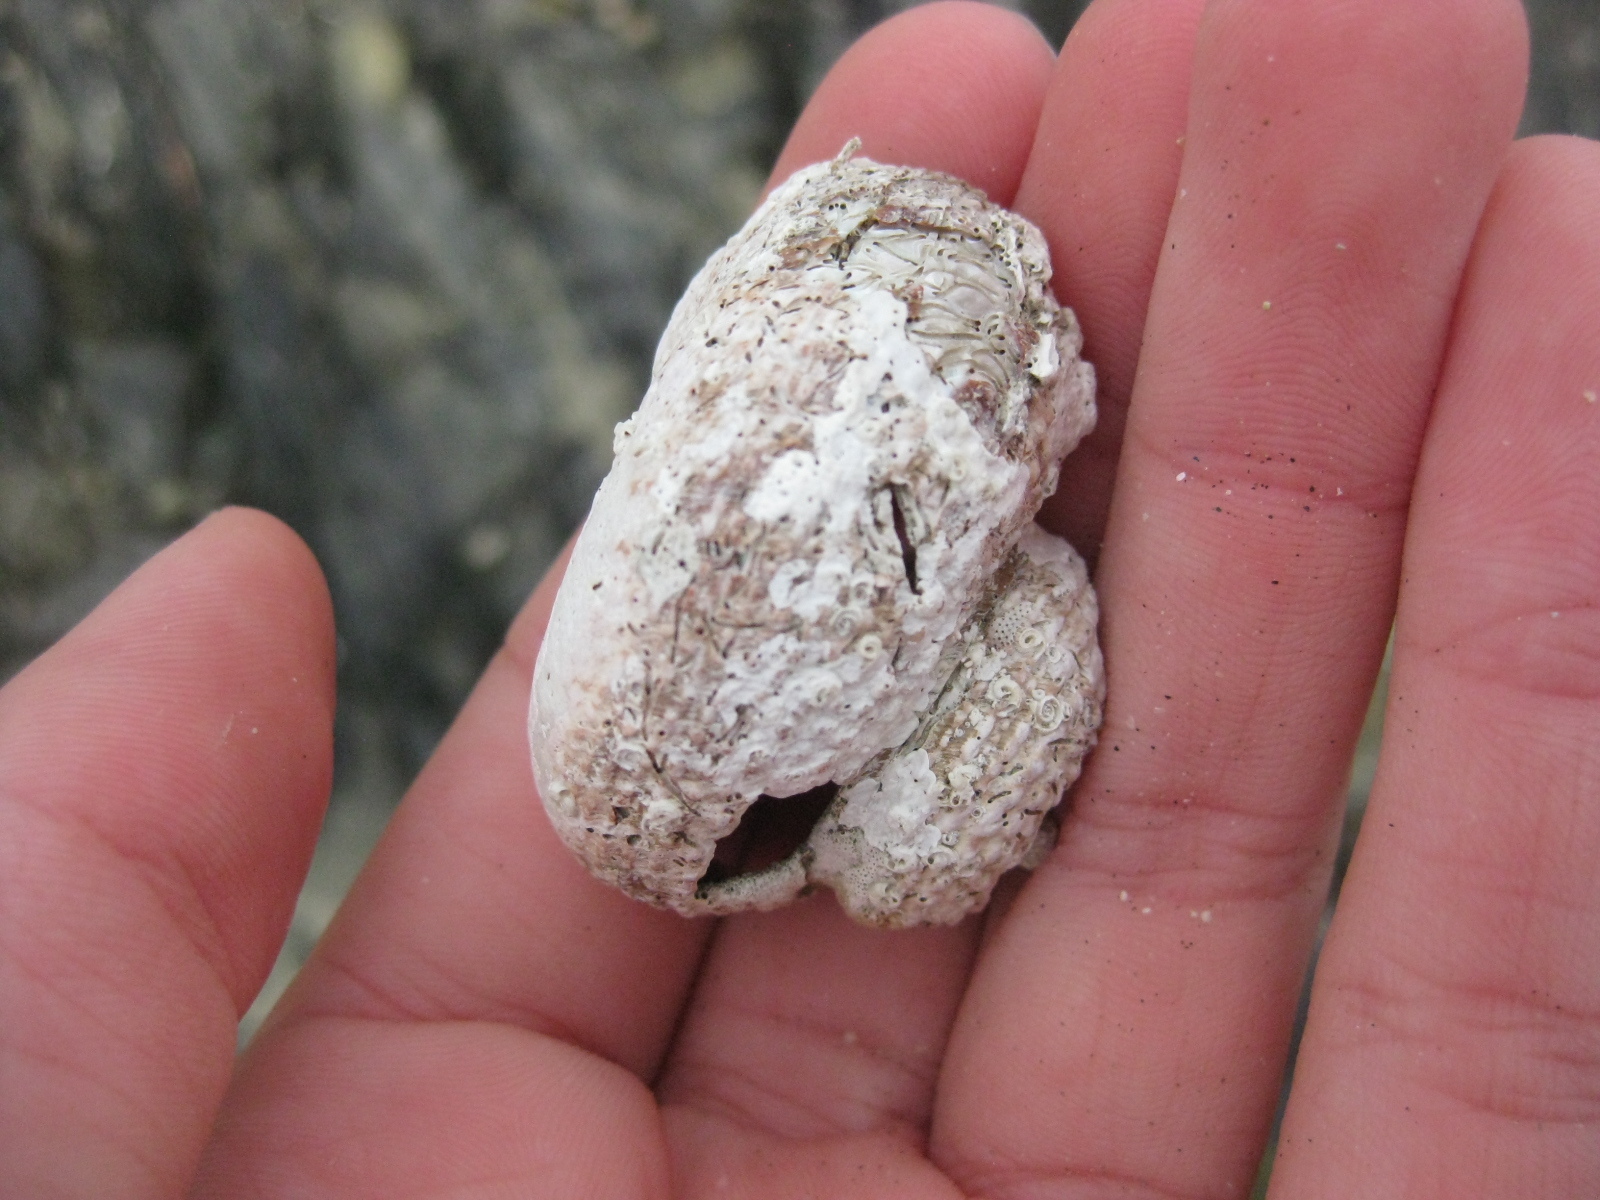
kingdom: Animalia
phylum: Mollusca
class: Gastropoda
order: Trochida
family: Turbinidae
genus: Modelia
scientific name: Modelia granosa
